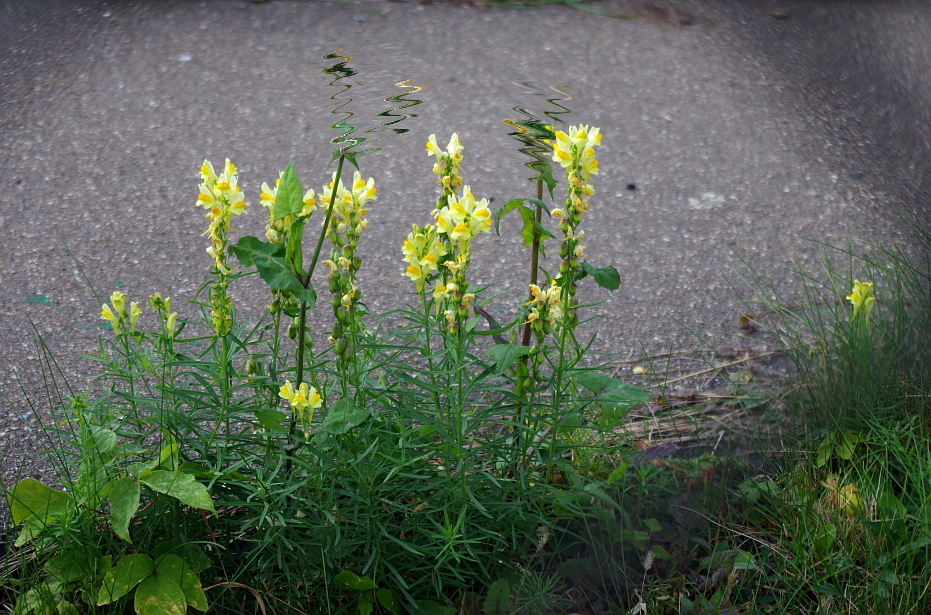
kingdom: Plantae
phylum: Tracheophyta
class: Magnoliopsida
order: Lamiales
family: Plantaginaceae
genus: Linaria
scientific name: Linaria vulgaris
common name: Butter and eggs
